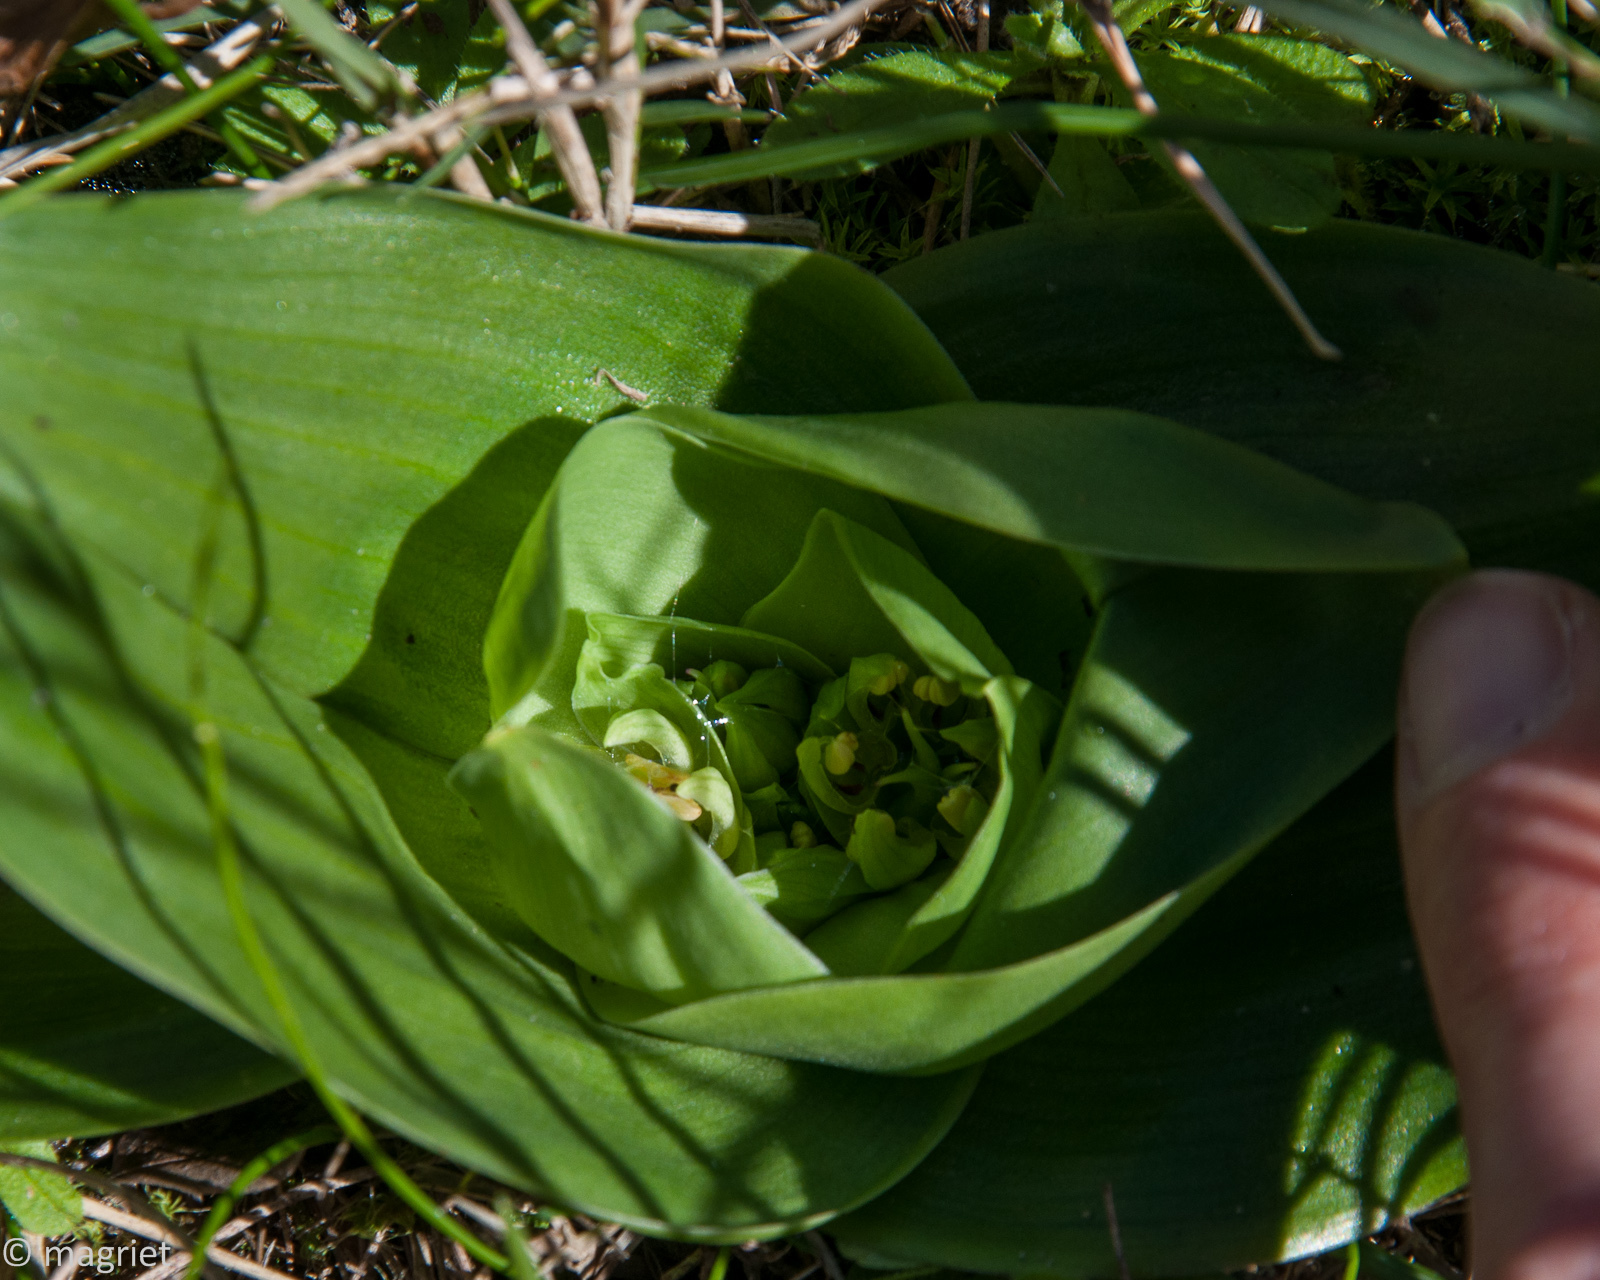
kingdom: Plantae
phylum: Tracheophyta
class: Liliopsida
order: Liliales
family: Colchicaceae
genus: Colchicum
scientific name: Colchicum eucomoides
